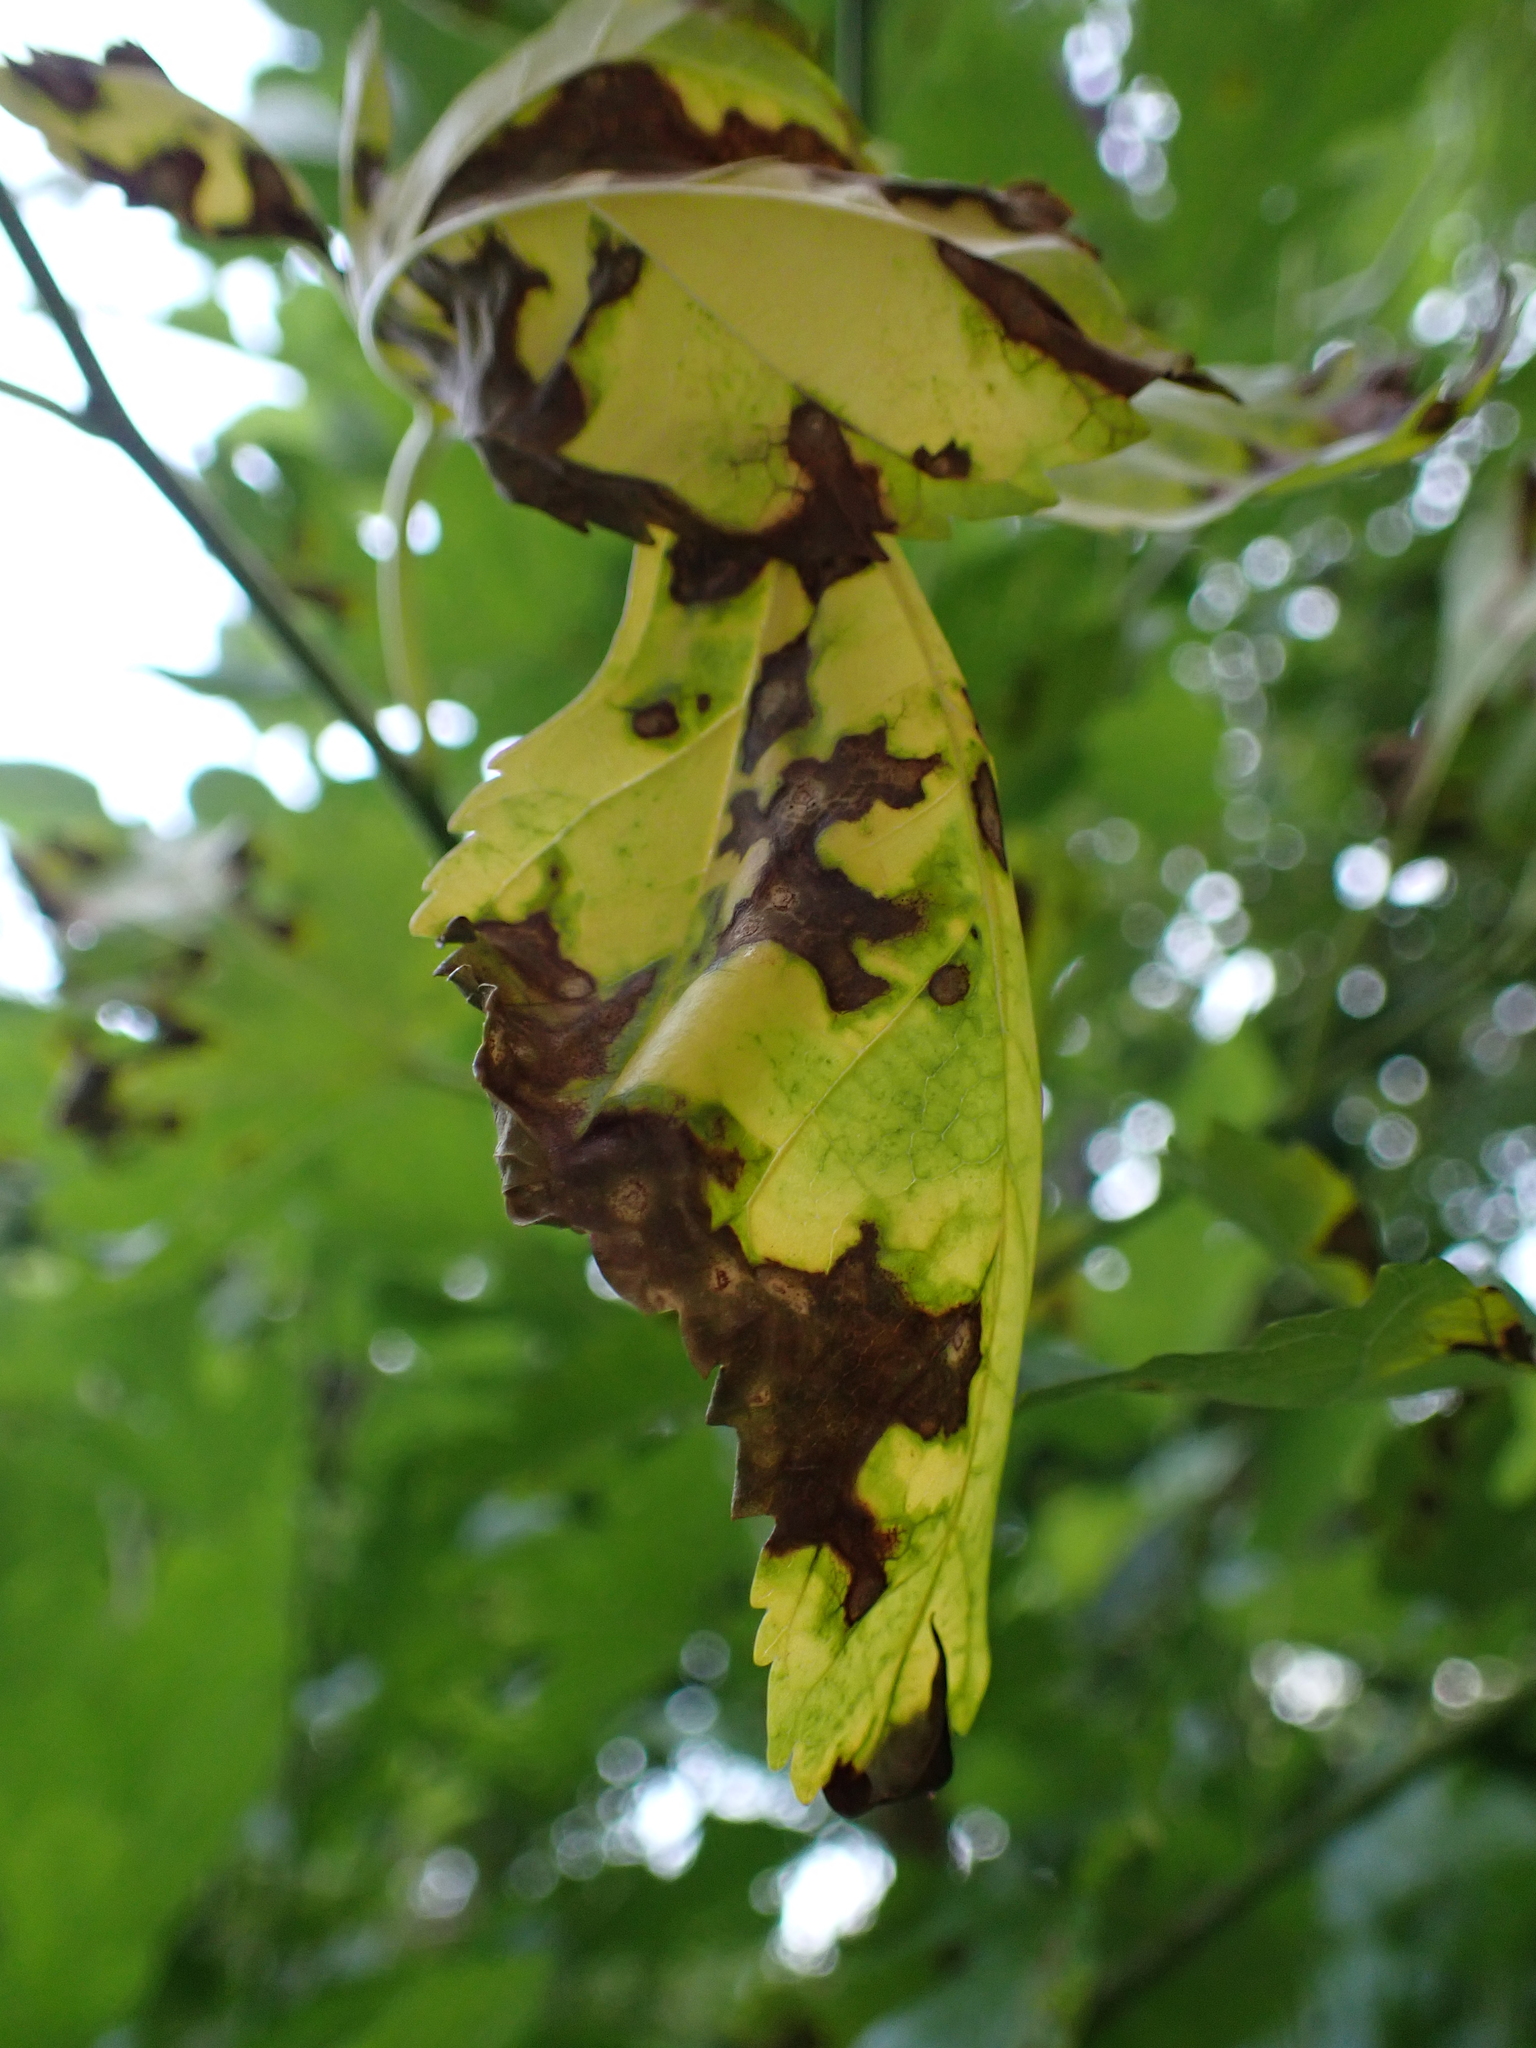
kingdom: Fungi
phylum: Ascomycota
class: Dothideomycetes
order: Mycosphaerellales
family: Mycosphaerellaceae
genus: Neophloeospora
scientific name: Neophloeospora maculans
